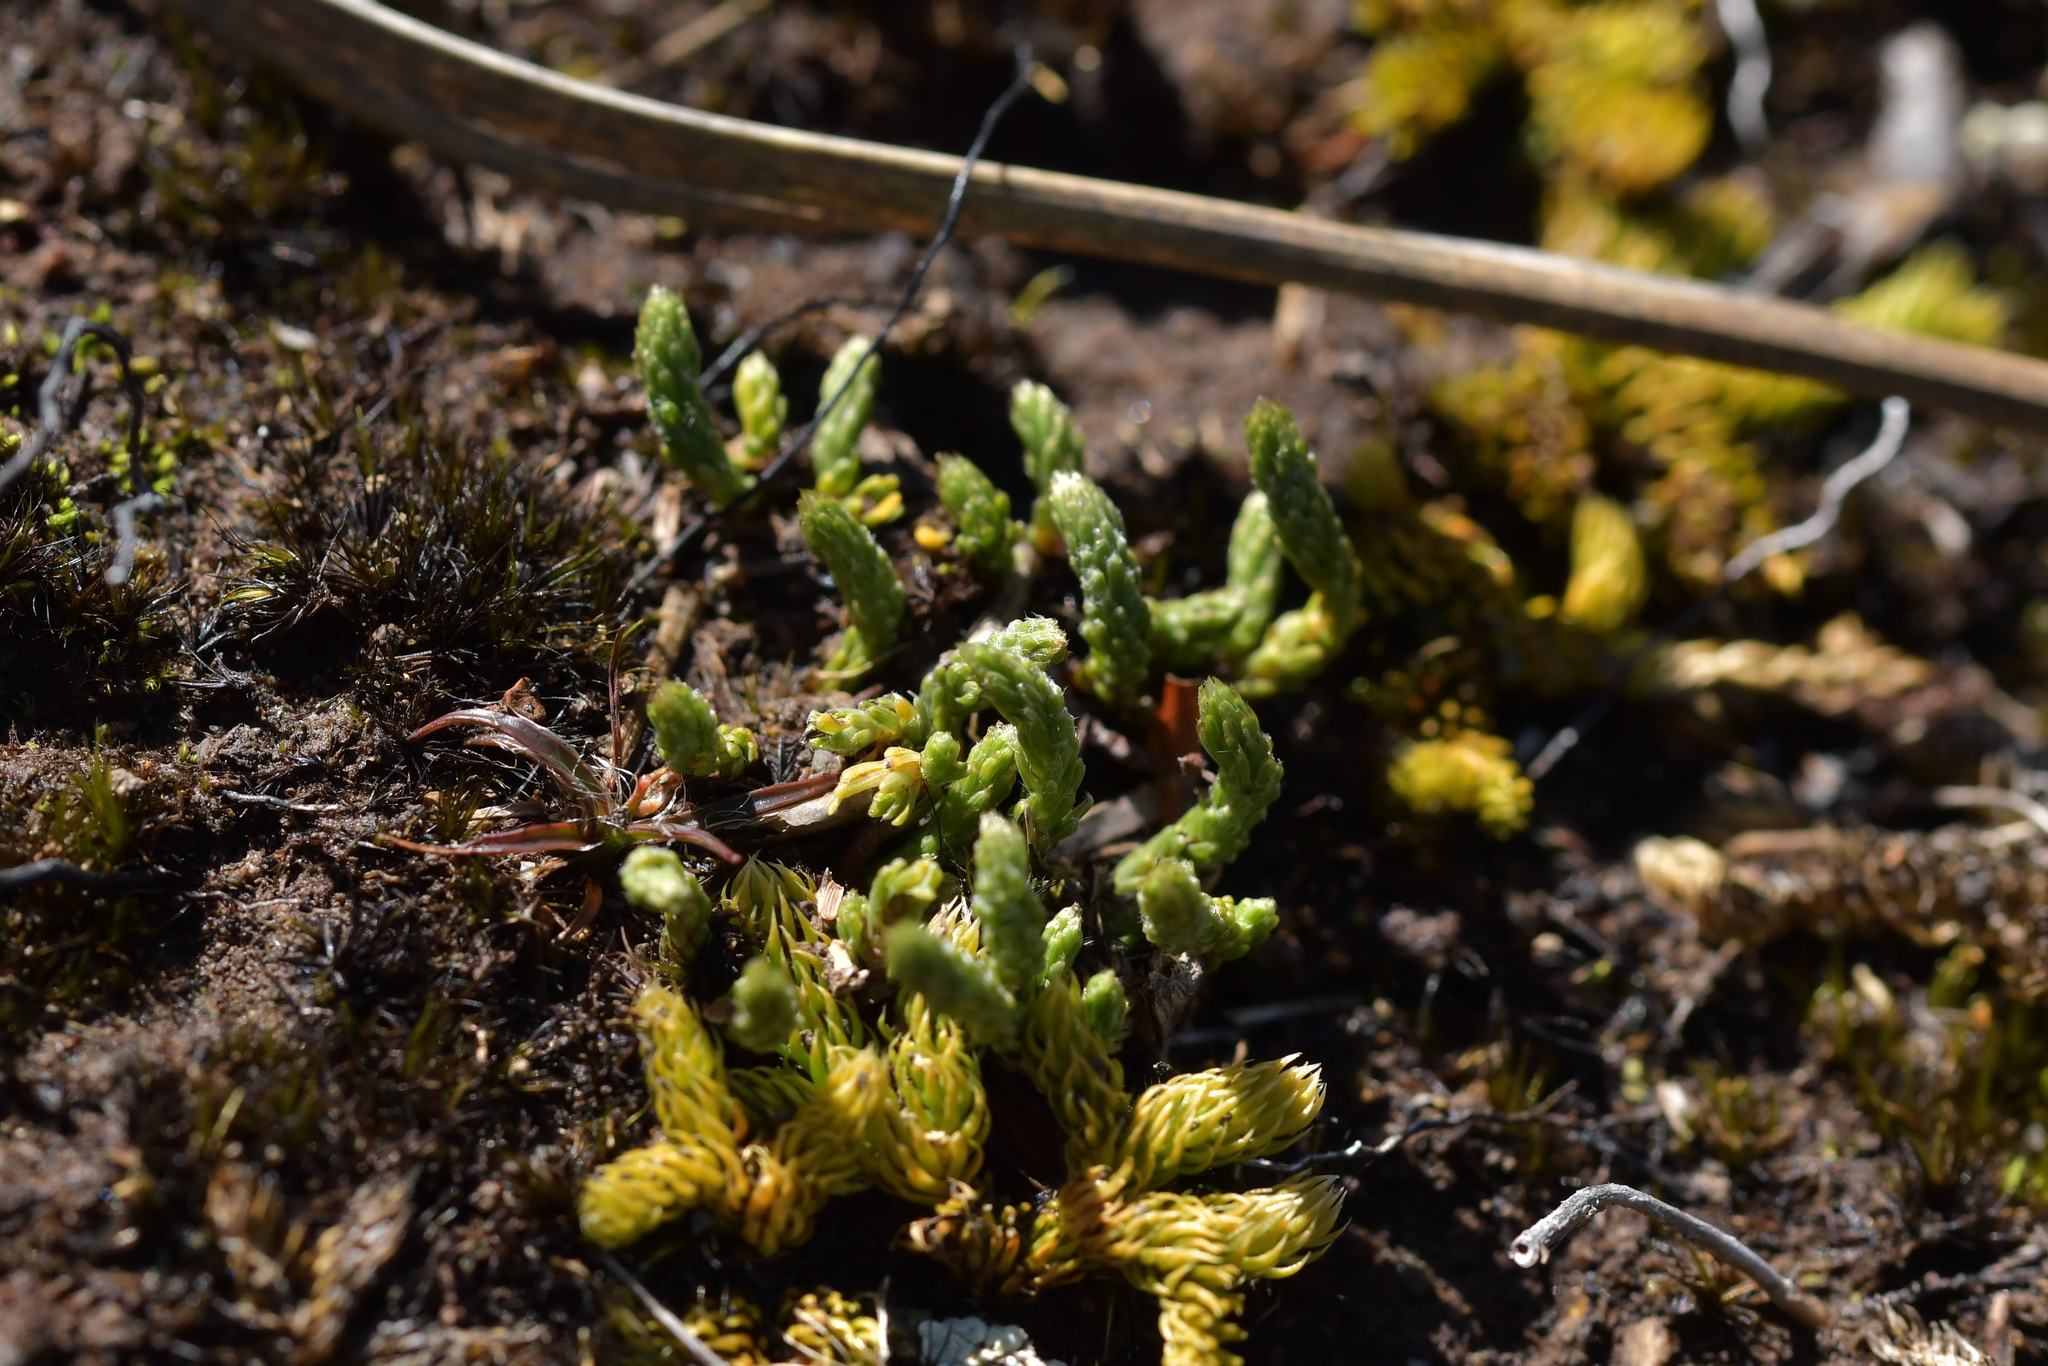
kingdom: Plantae
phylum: Tracheophyta
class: Magnoliopsida
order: Malvales
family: Thymelaeaceae
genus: Kelleria
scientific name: Kelleria dieffenbachii
